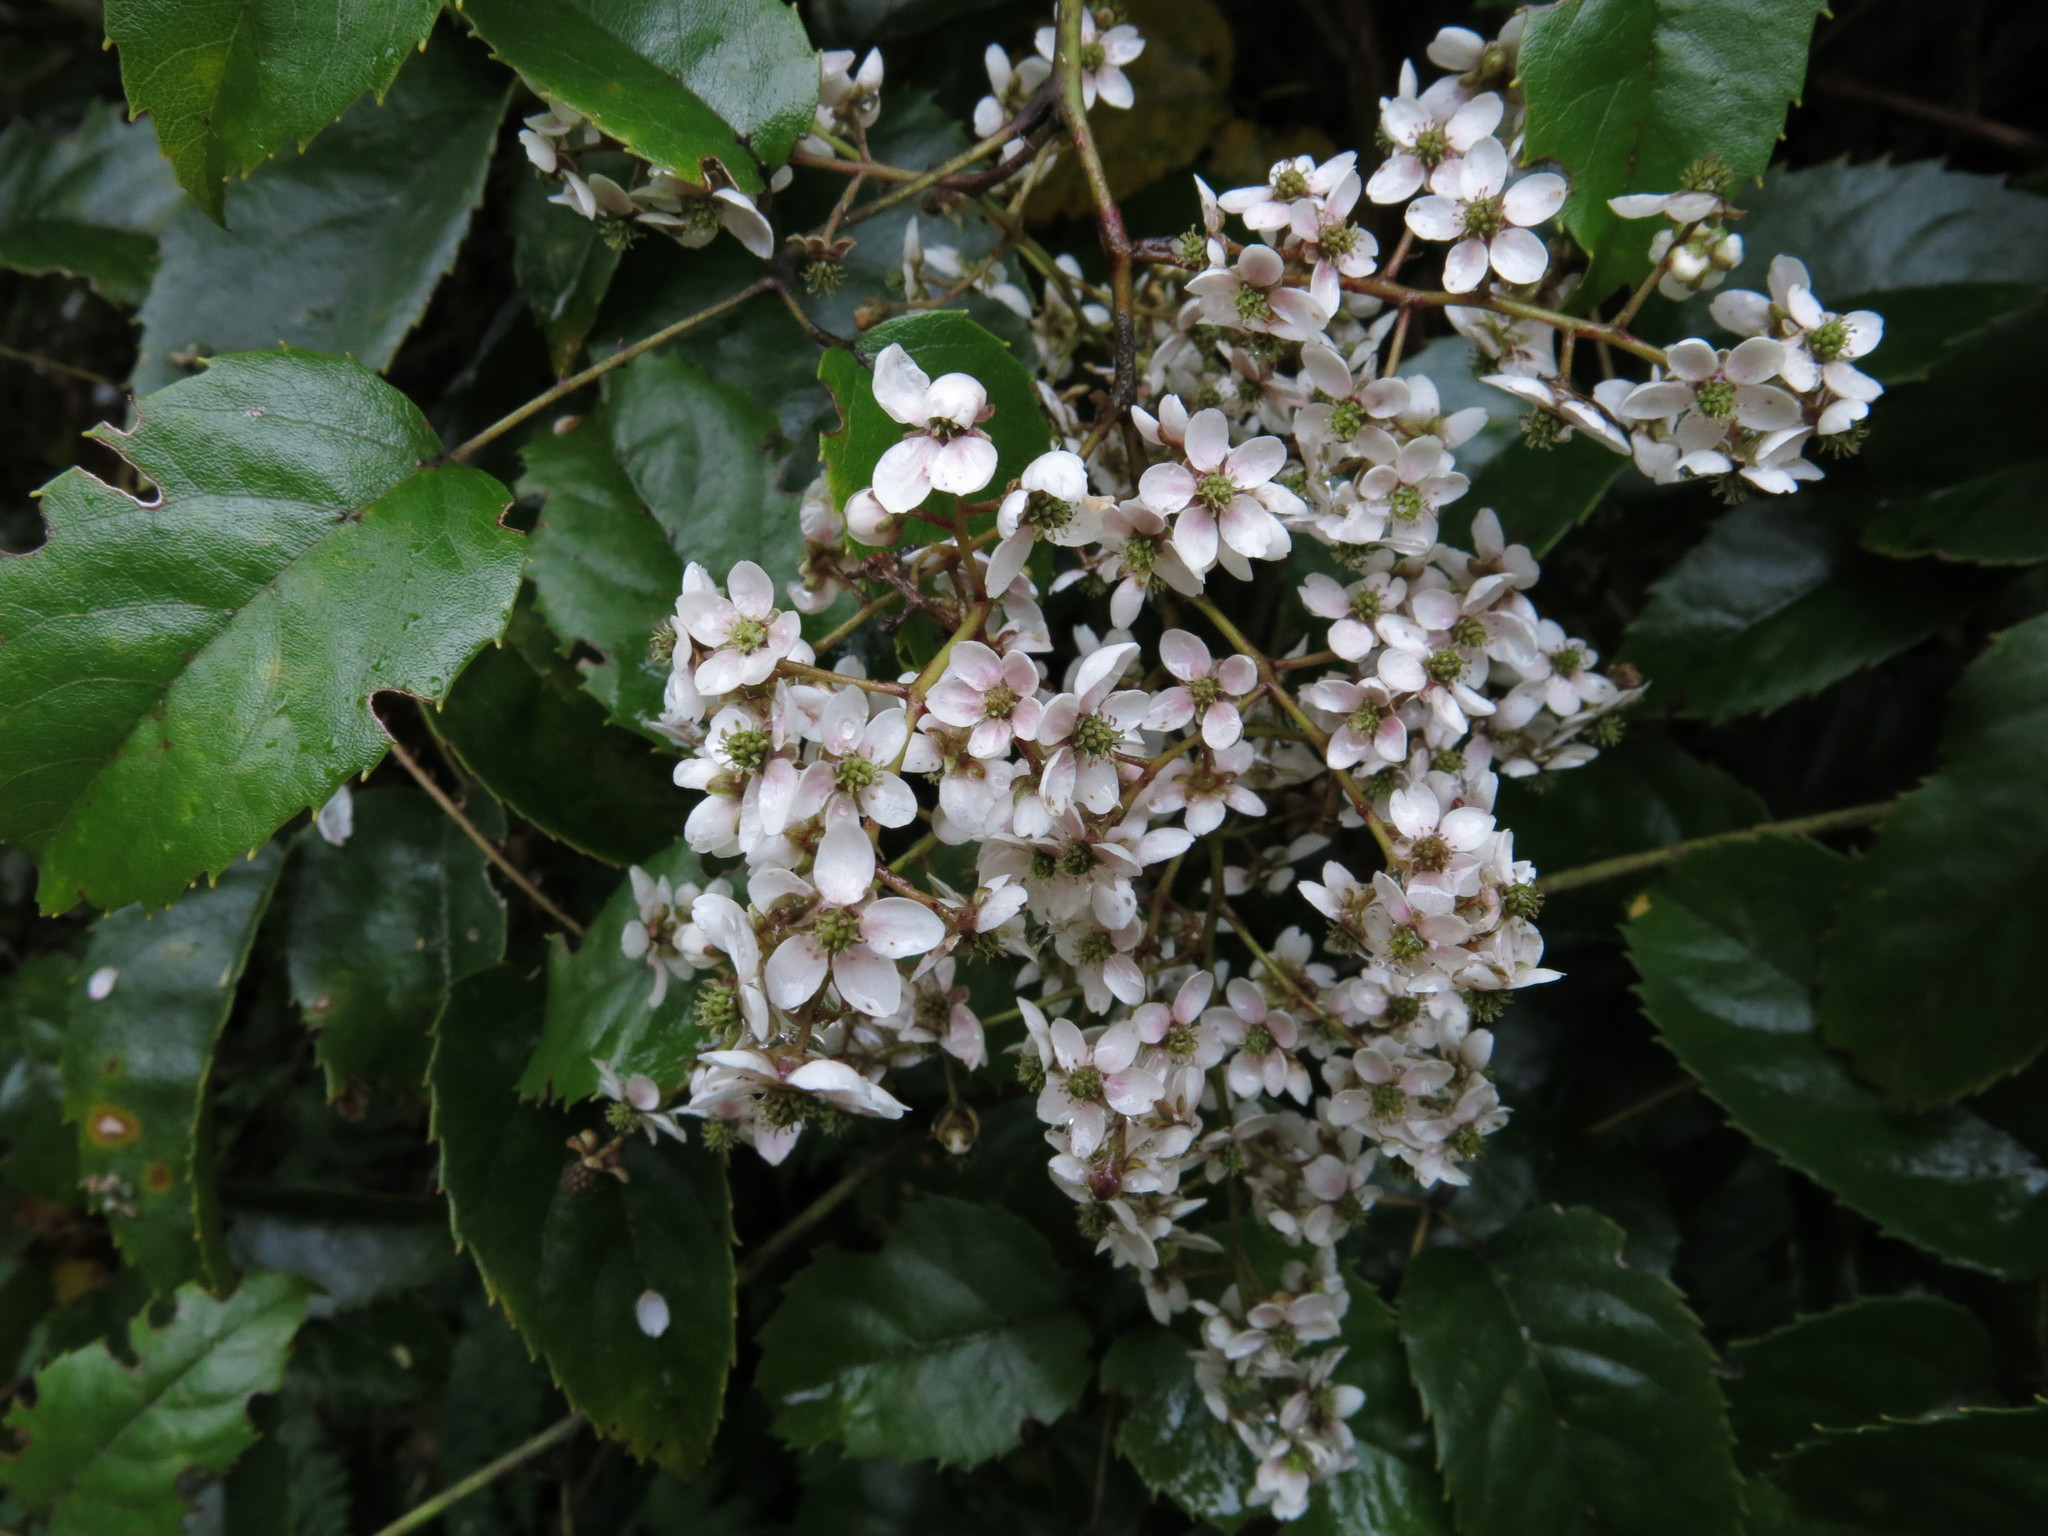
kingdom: Plantae
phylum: Tracheophyta
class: Magnoliopsida
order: Rosales
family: Rosaceae
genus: Rubus
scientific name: Rubus cissoides
